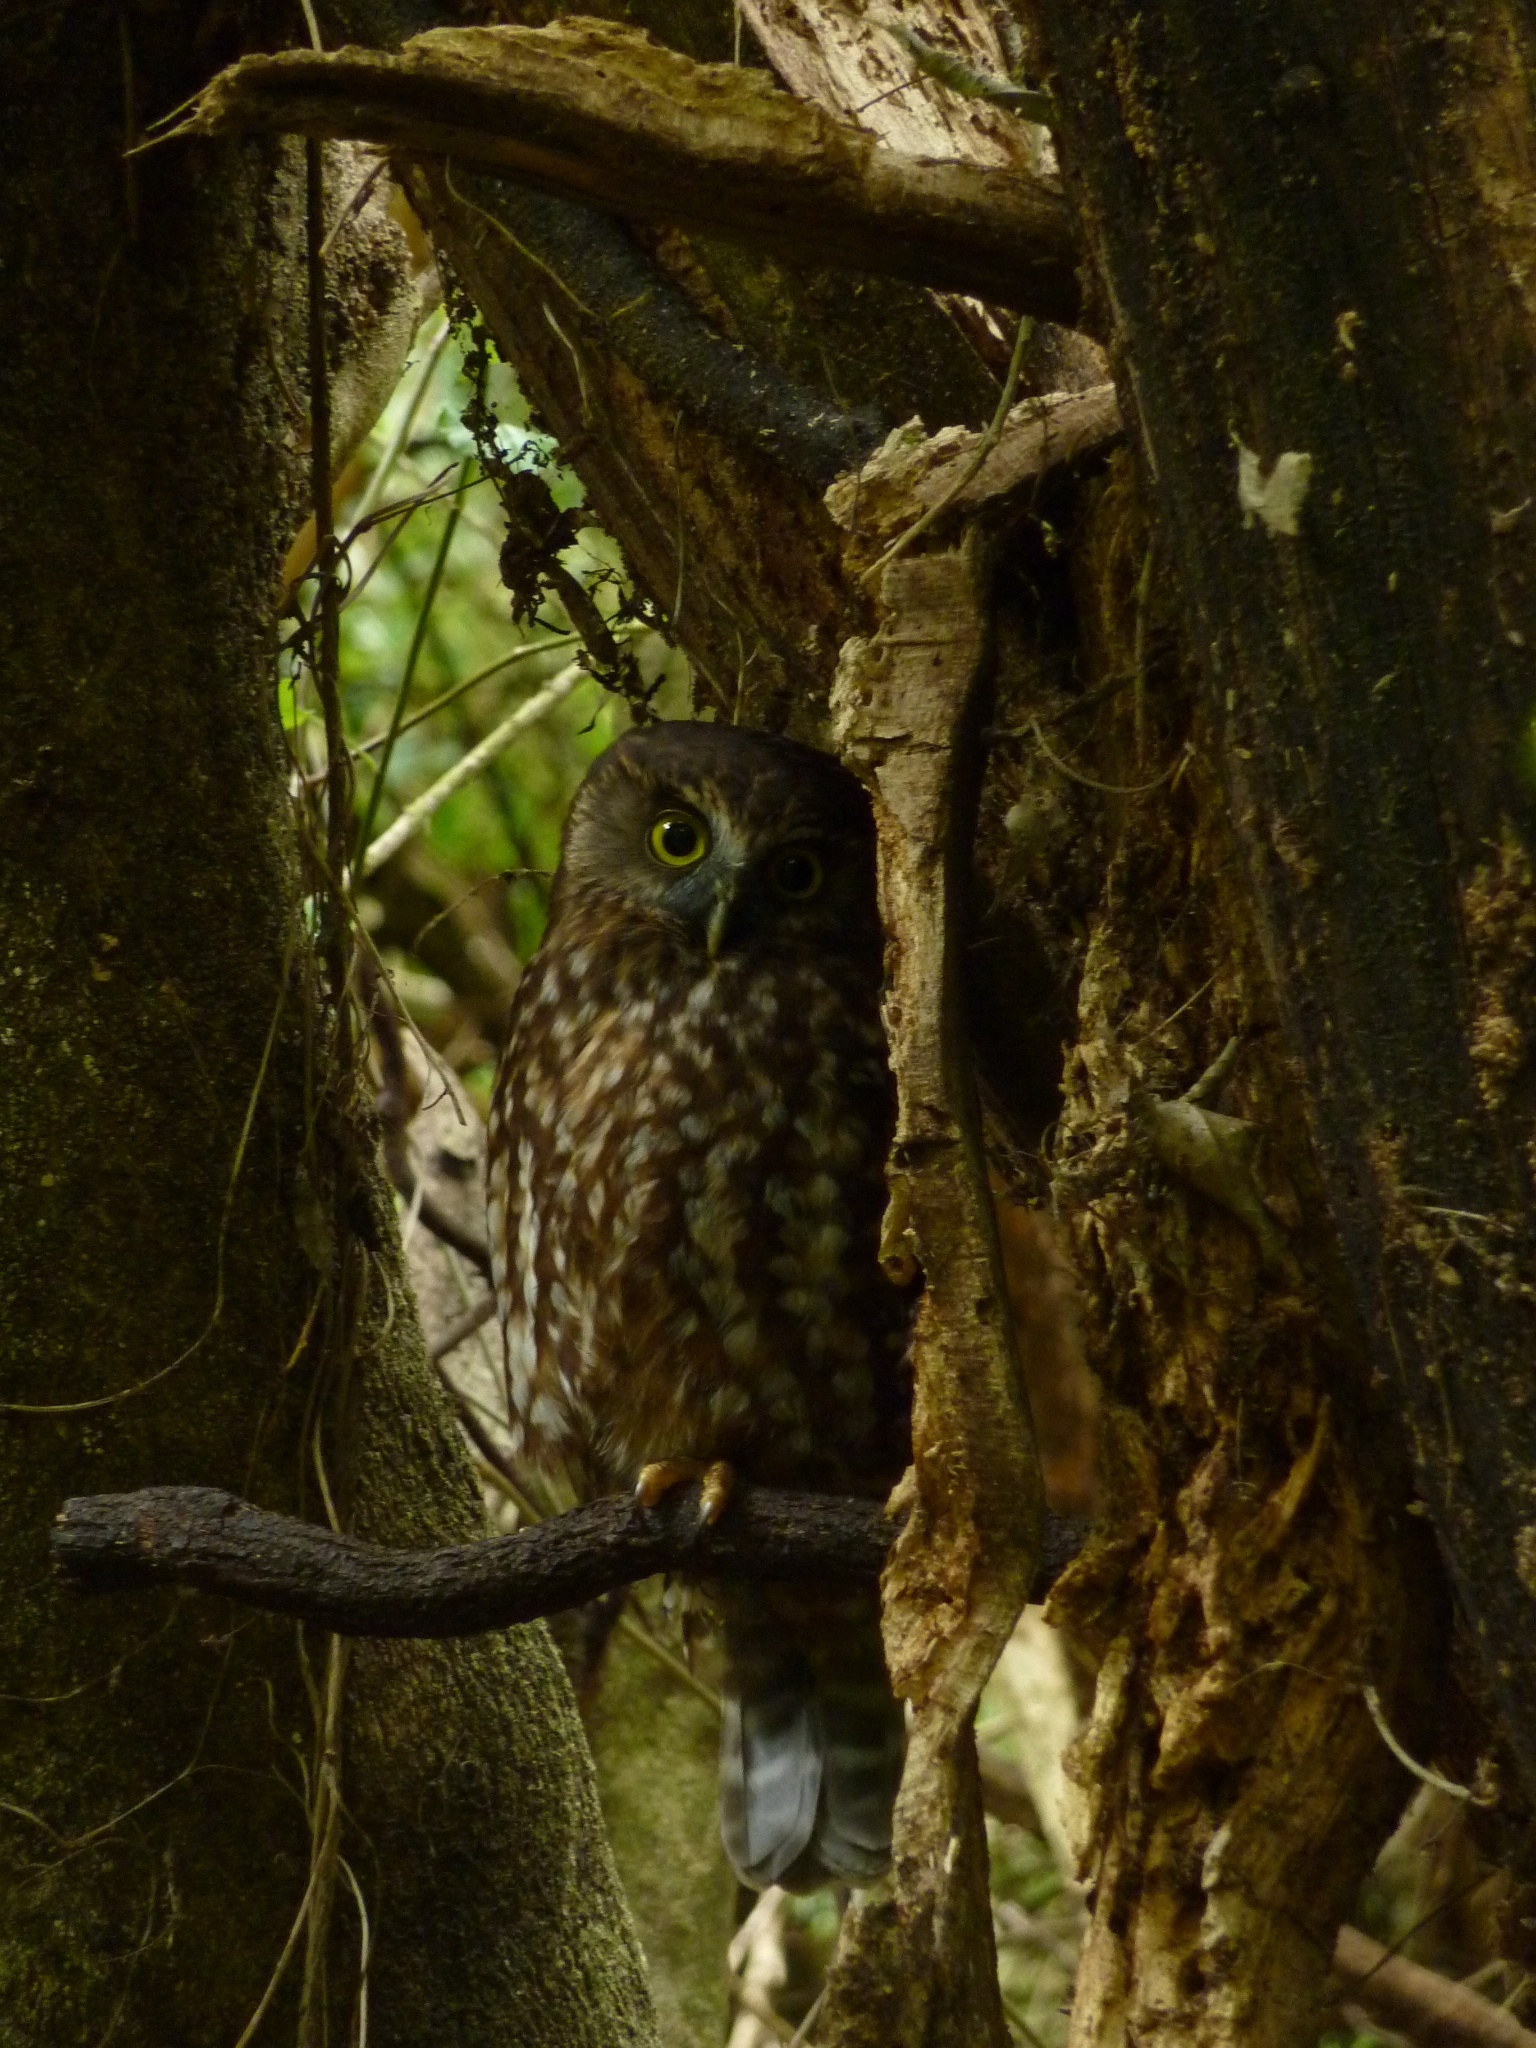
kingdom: Animalia
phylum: Chordata
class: Aves
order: Strigiformes
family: Strigidae
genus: Ninox
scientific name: Ninox novaeseelandiae
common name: Morepork
